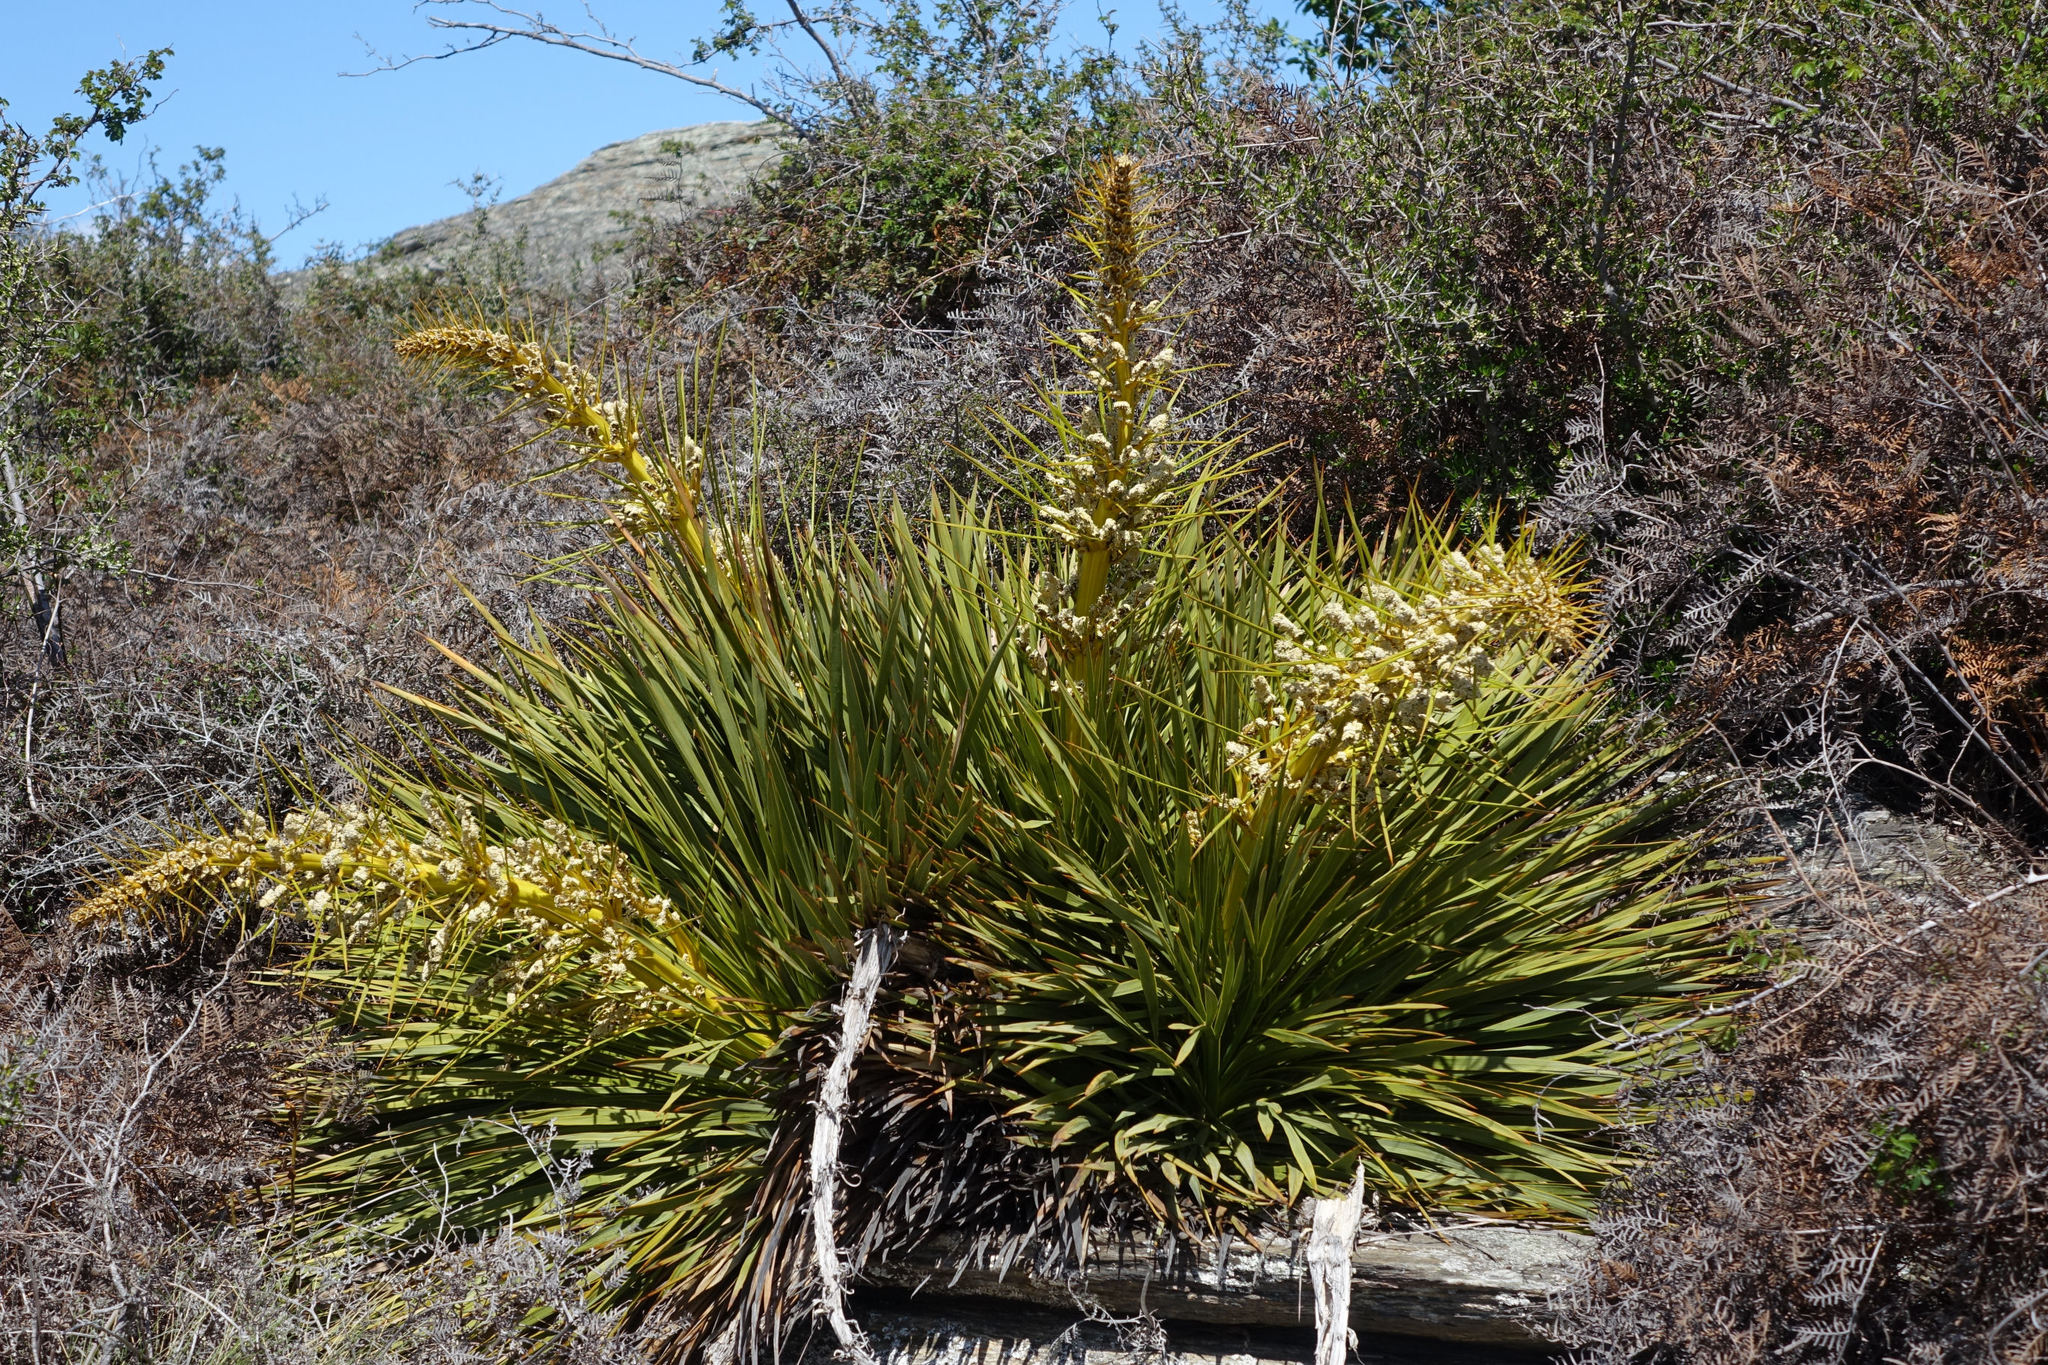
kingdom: Plantae
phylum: Tracheophyta
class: Magnoliopsida
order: Apiales
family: Apiaceae
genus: Aciphylla
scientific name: Aciphylla aurea
